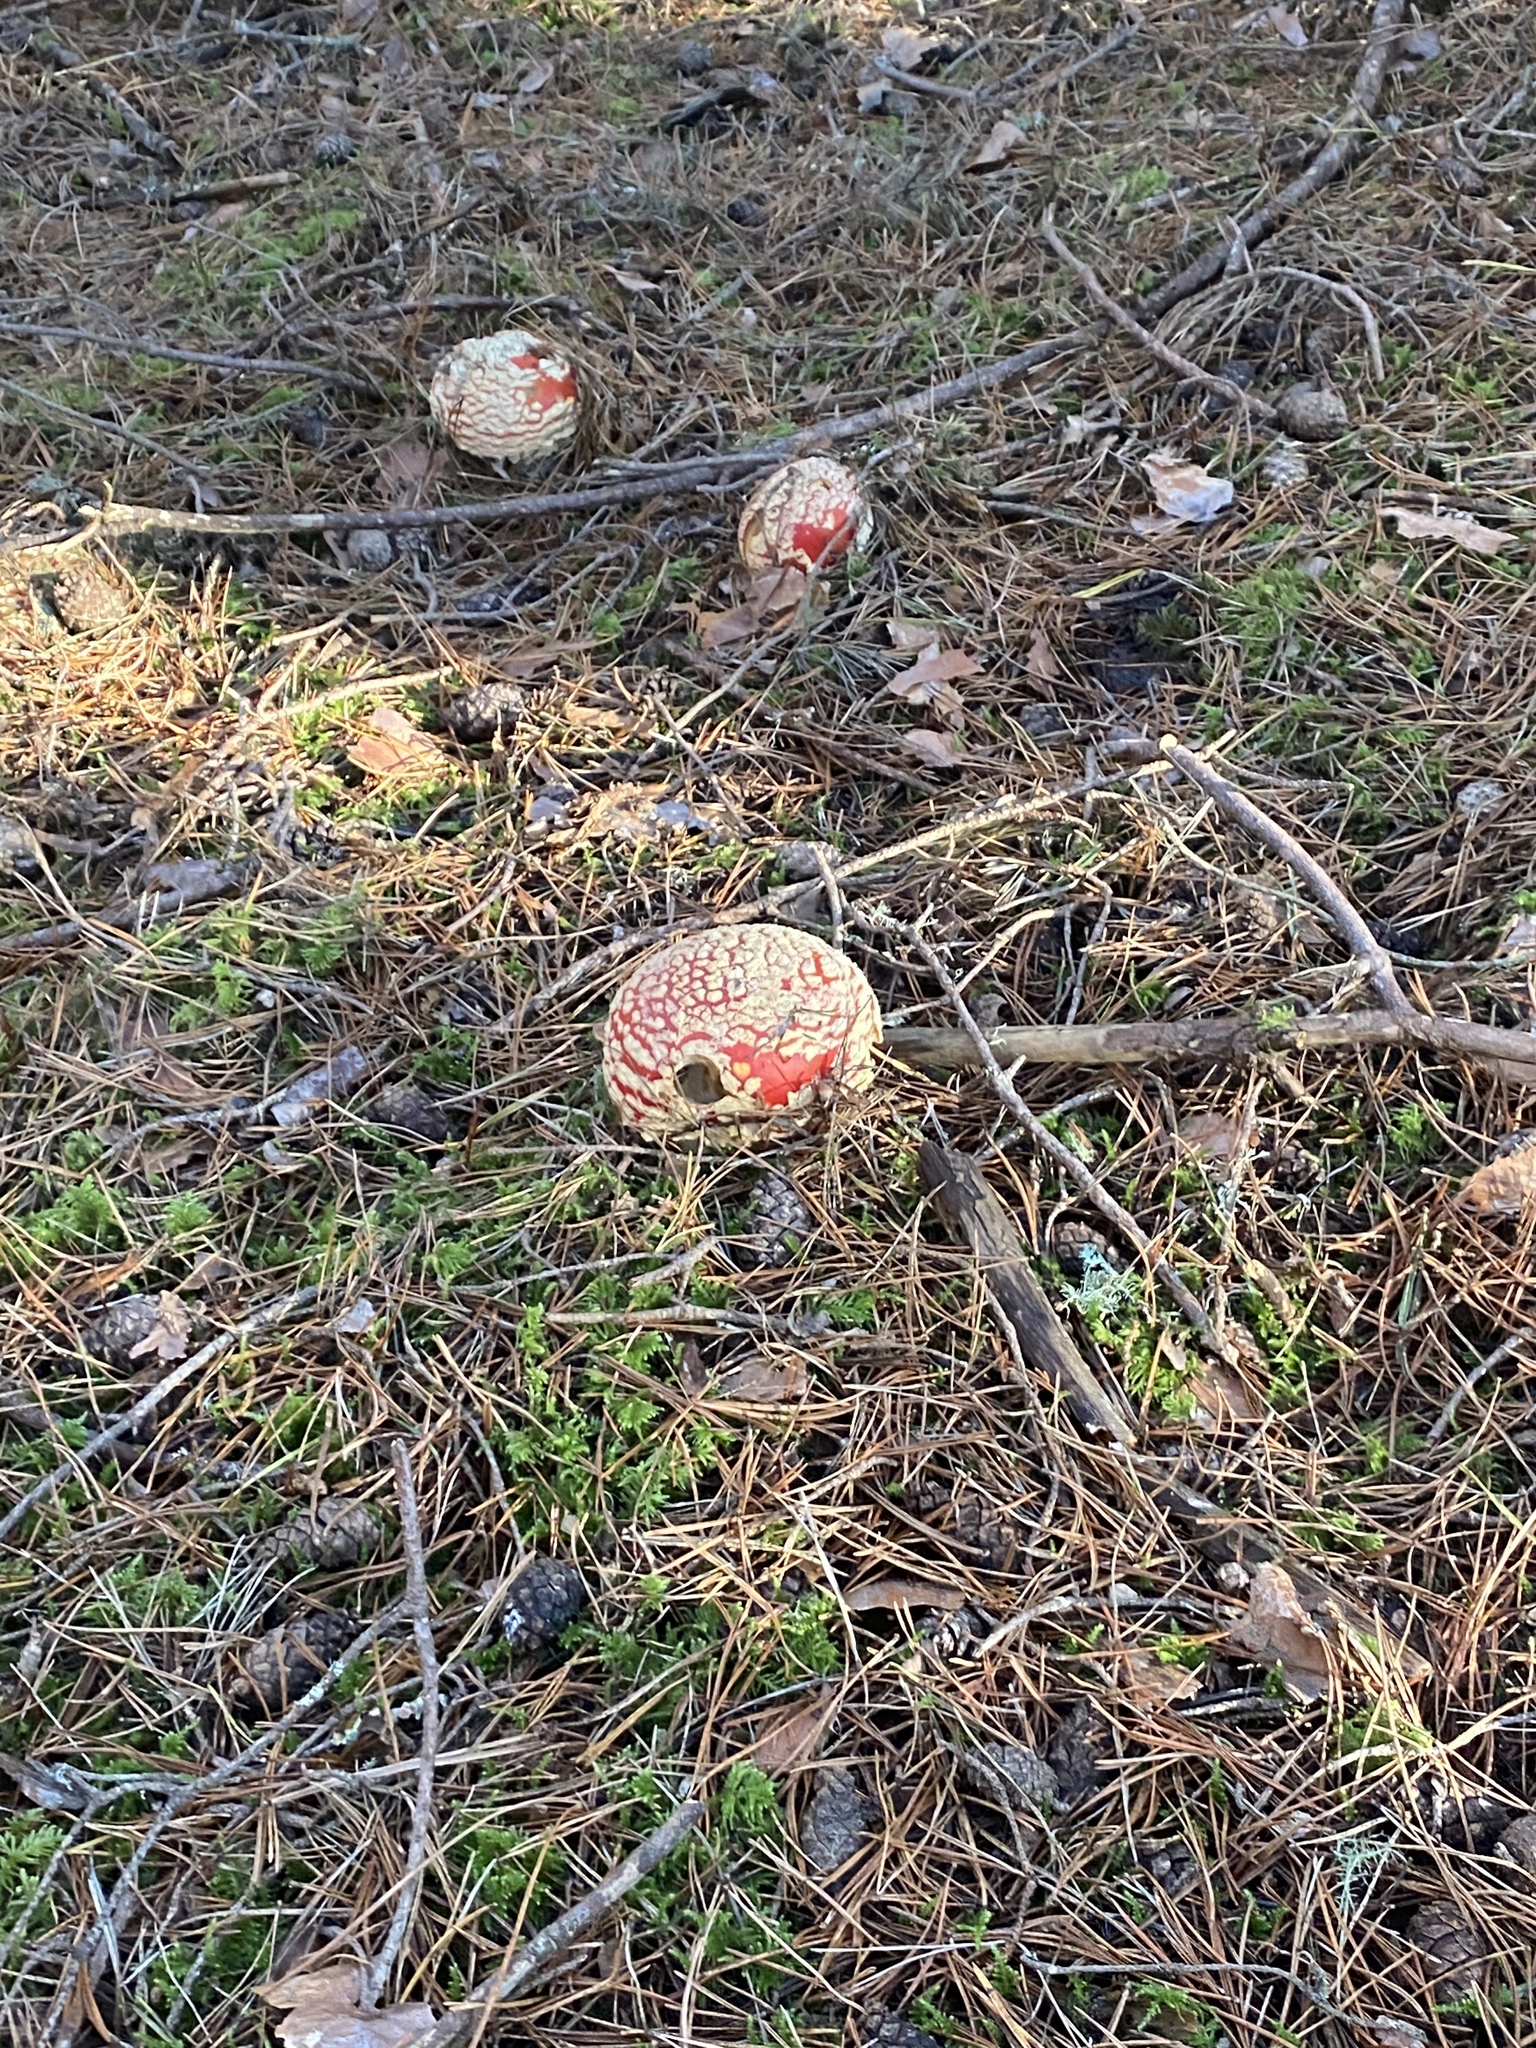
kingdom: Fungi
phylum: Basidiomycota
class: Agaricomycetes
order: Agaricales
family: Amanitaceae
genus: Amanita
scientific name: Amanita muscaria
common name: Fly agaric
